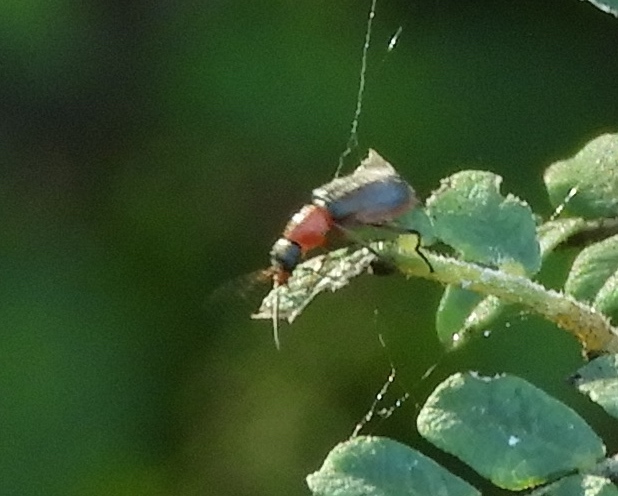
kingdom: Animalia
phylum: Arthropoda
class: Insecta
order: Coleoptera
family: Melyridae
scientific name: Melyridae
